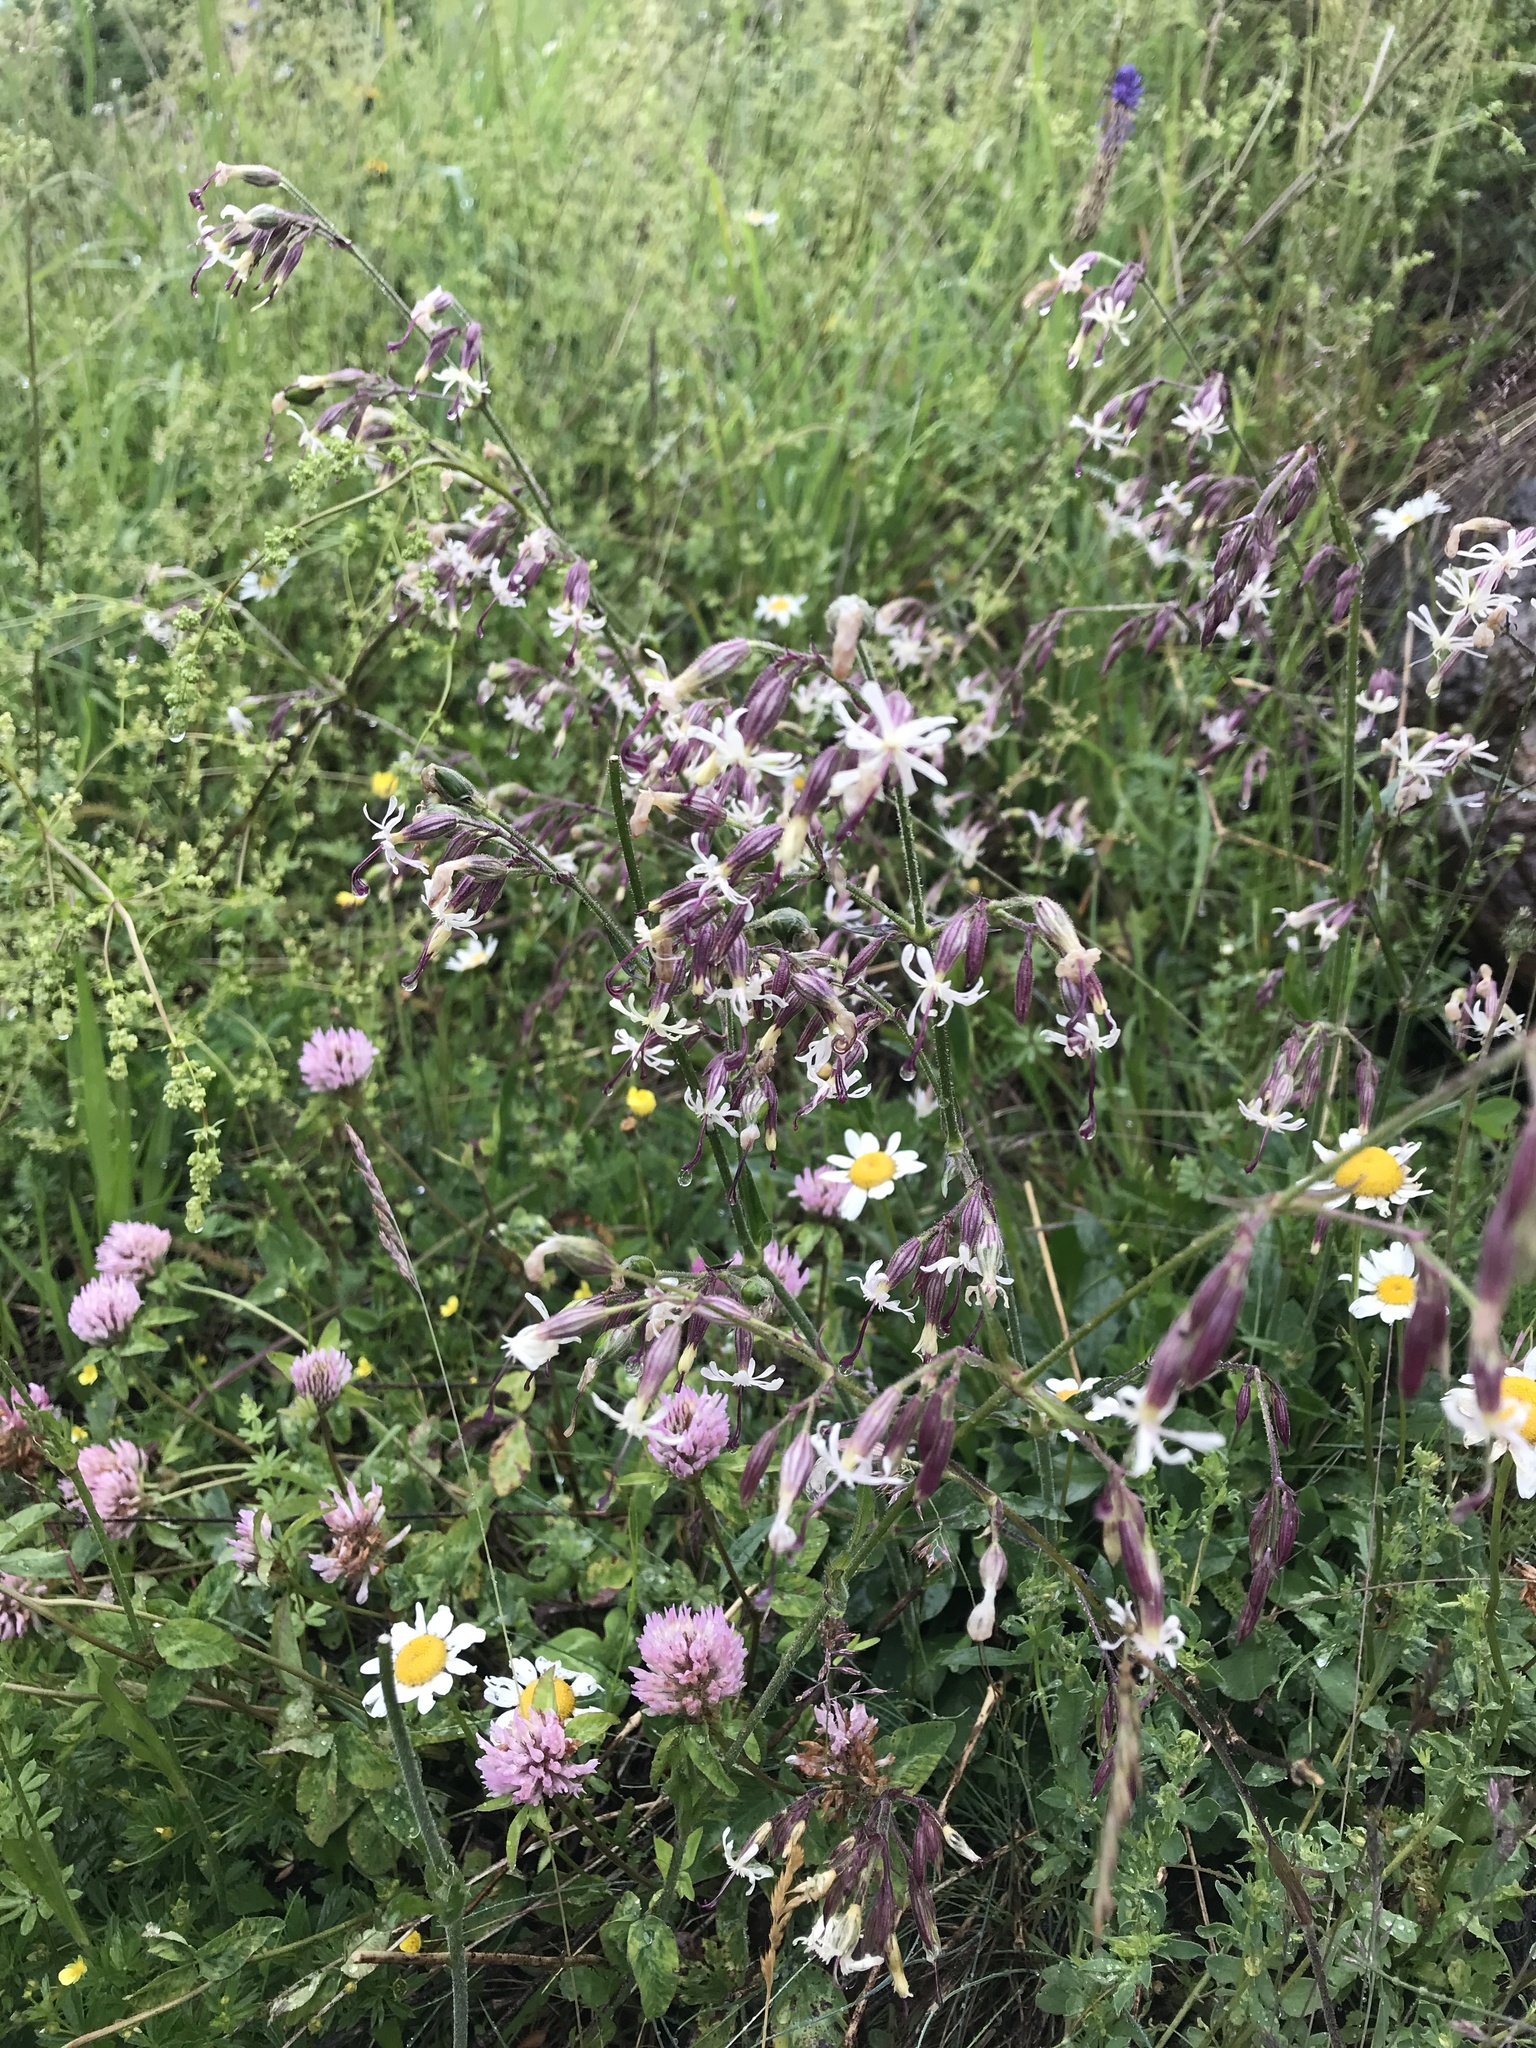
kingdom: Plantae
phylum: Tracheophyta
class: Magnoliopsida
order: Caryophyllales
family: Caryophyllaceae
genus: Silene
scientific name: Silene nutans
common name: Nottingham catchfly
